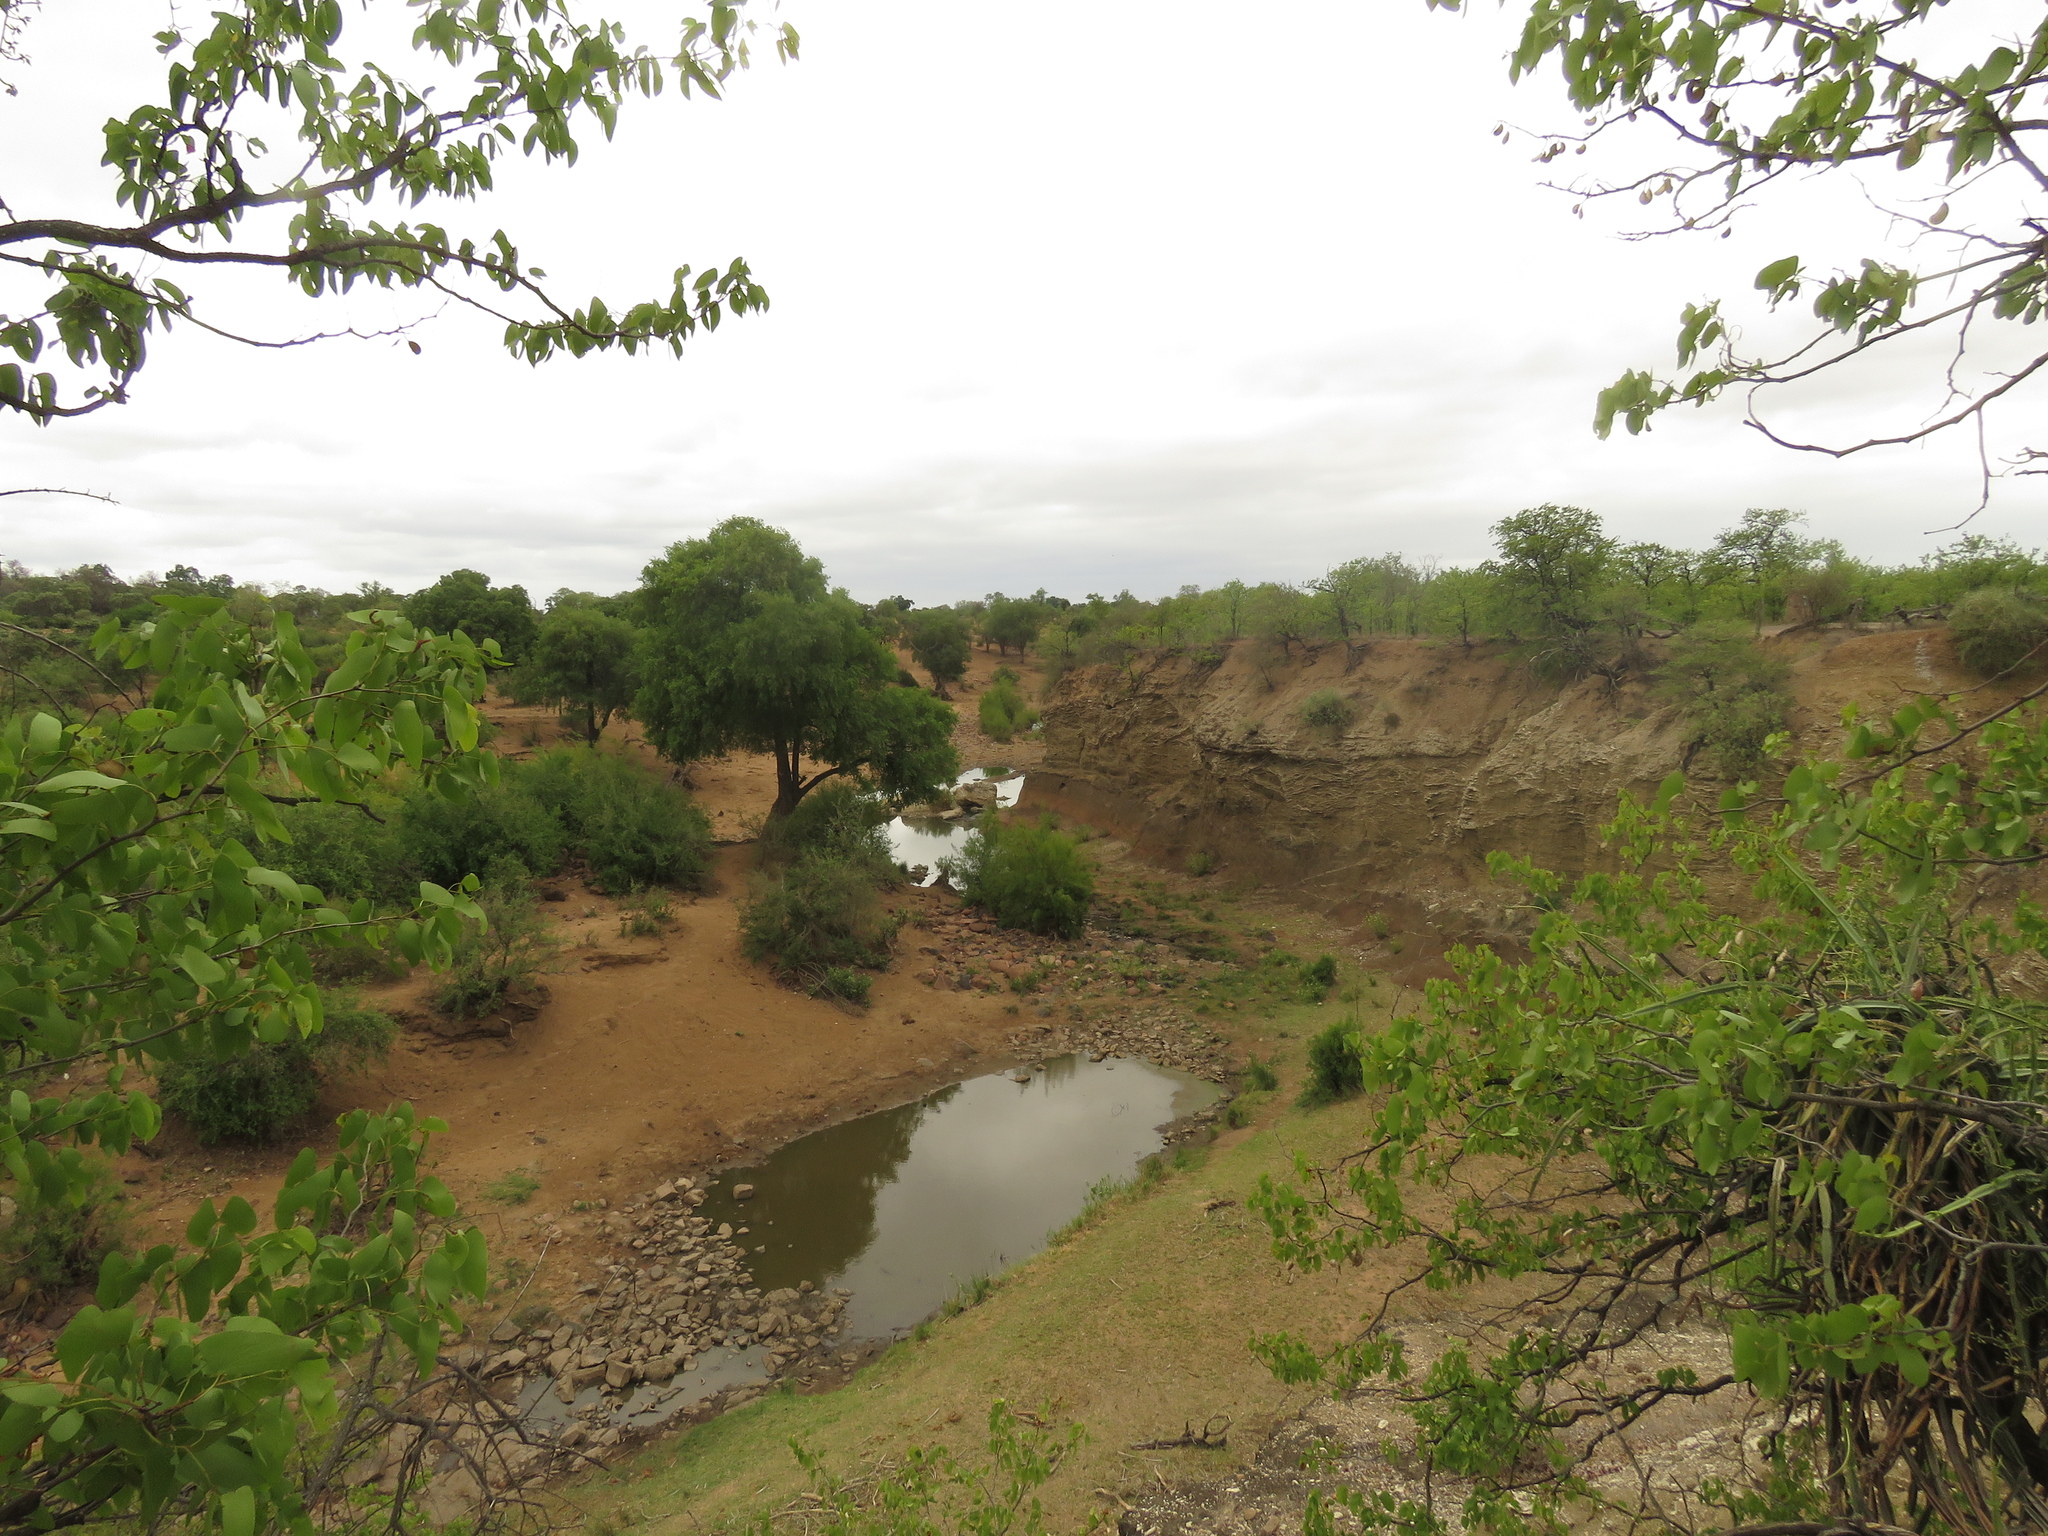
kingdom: Plantae
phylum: Tracheophyta
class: Magnoliopsida
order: Fabales
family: Fabaceae
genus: Colophospermum
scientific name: Colophospermum mopane
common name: Mopane
